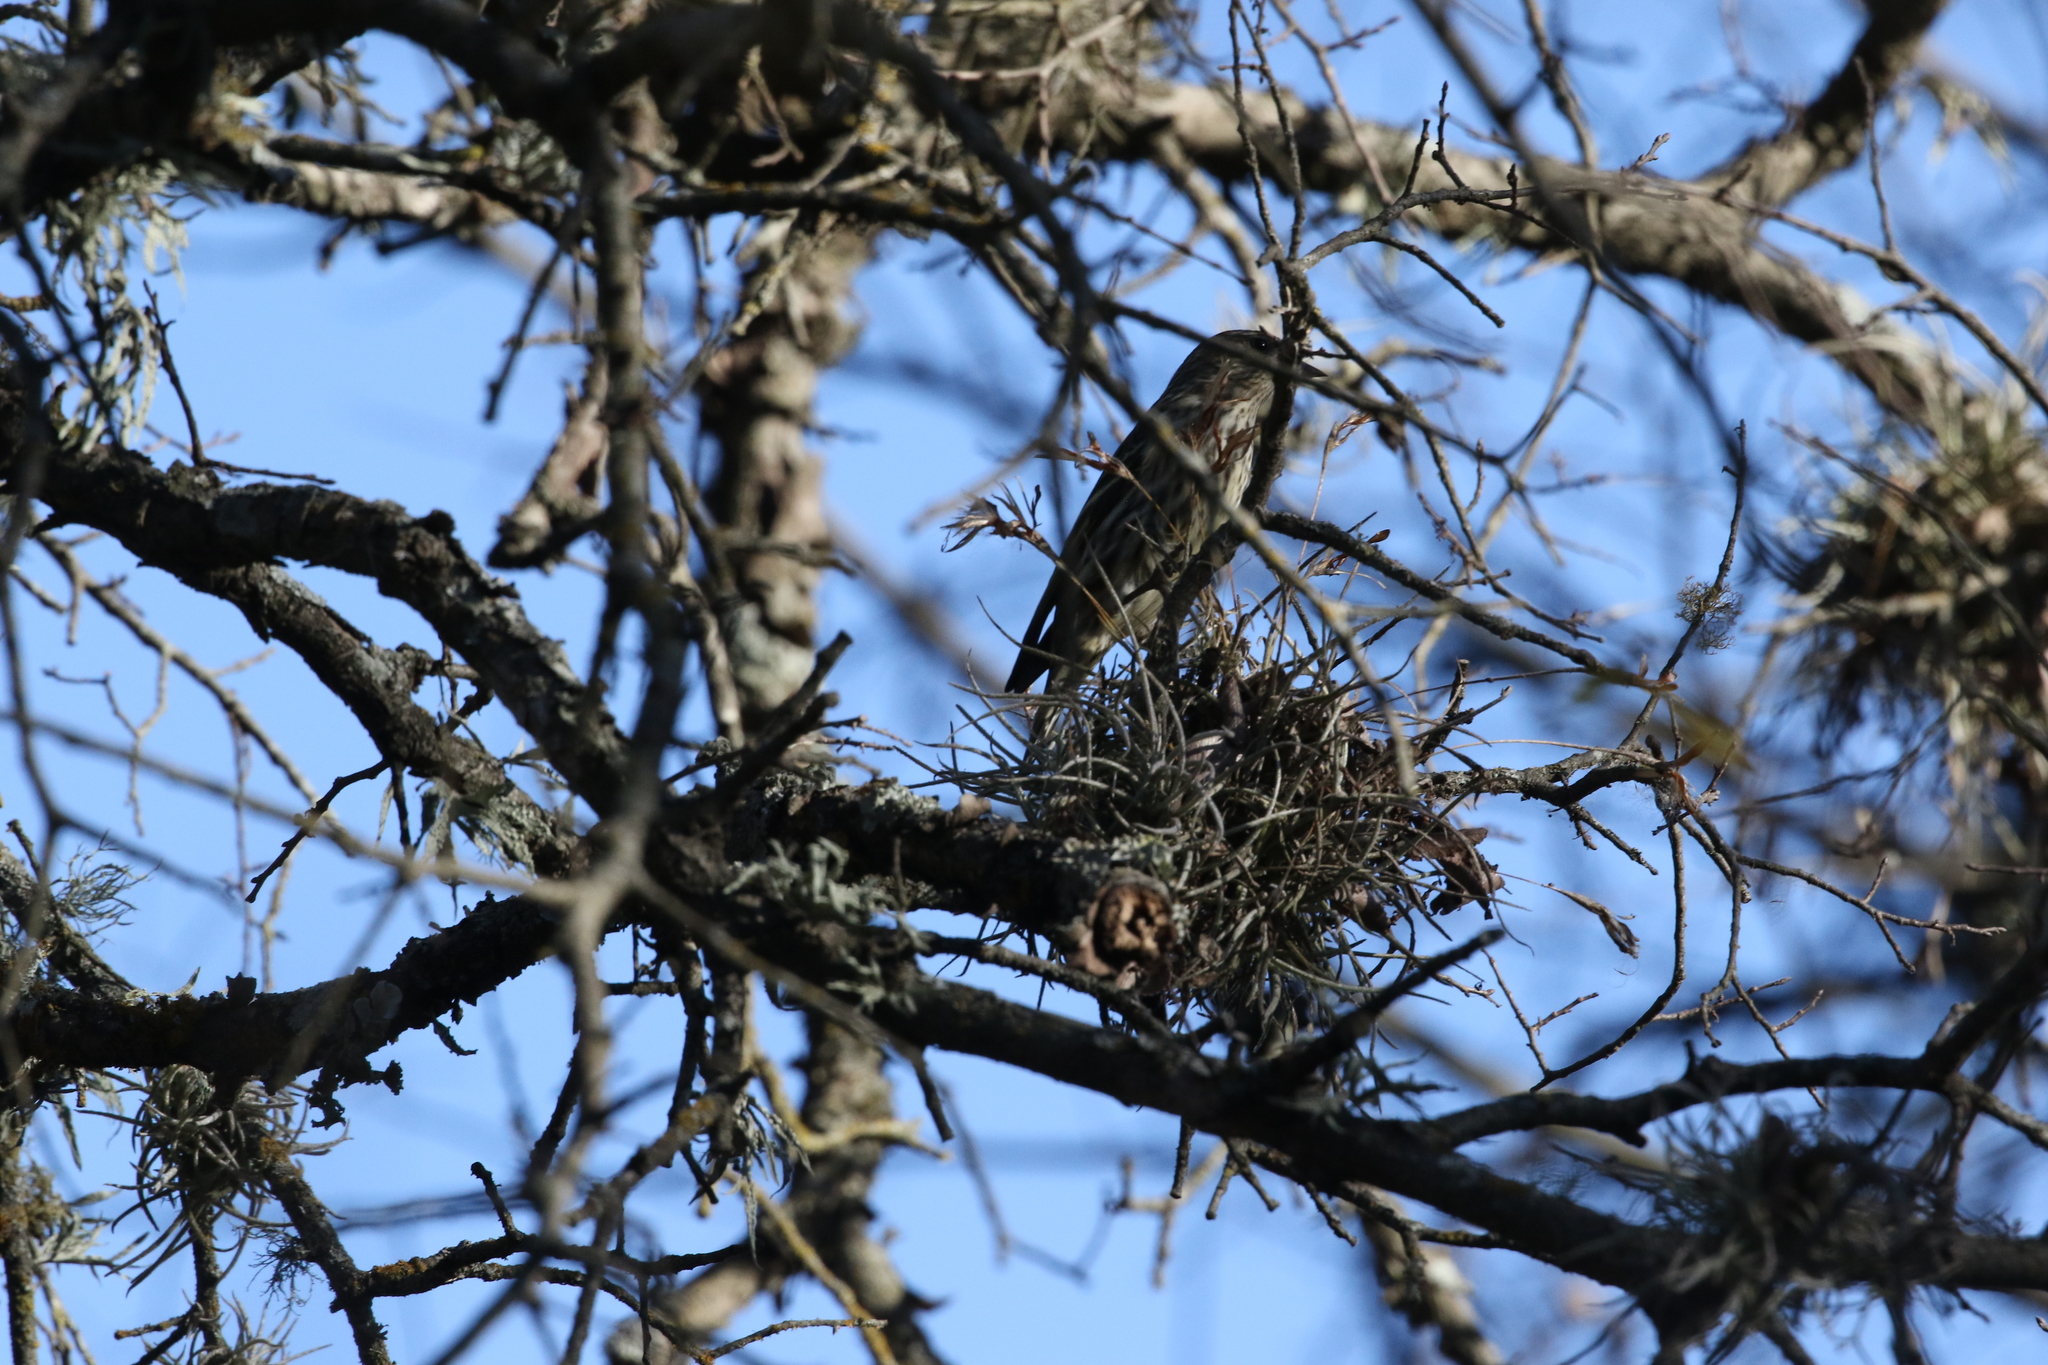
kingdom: Animalia
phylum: Chordata
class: Aves
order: Passeriformes
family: Fringillidae
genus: Spinus
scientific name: Spinus pinus
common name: Pine siskin
